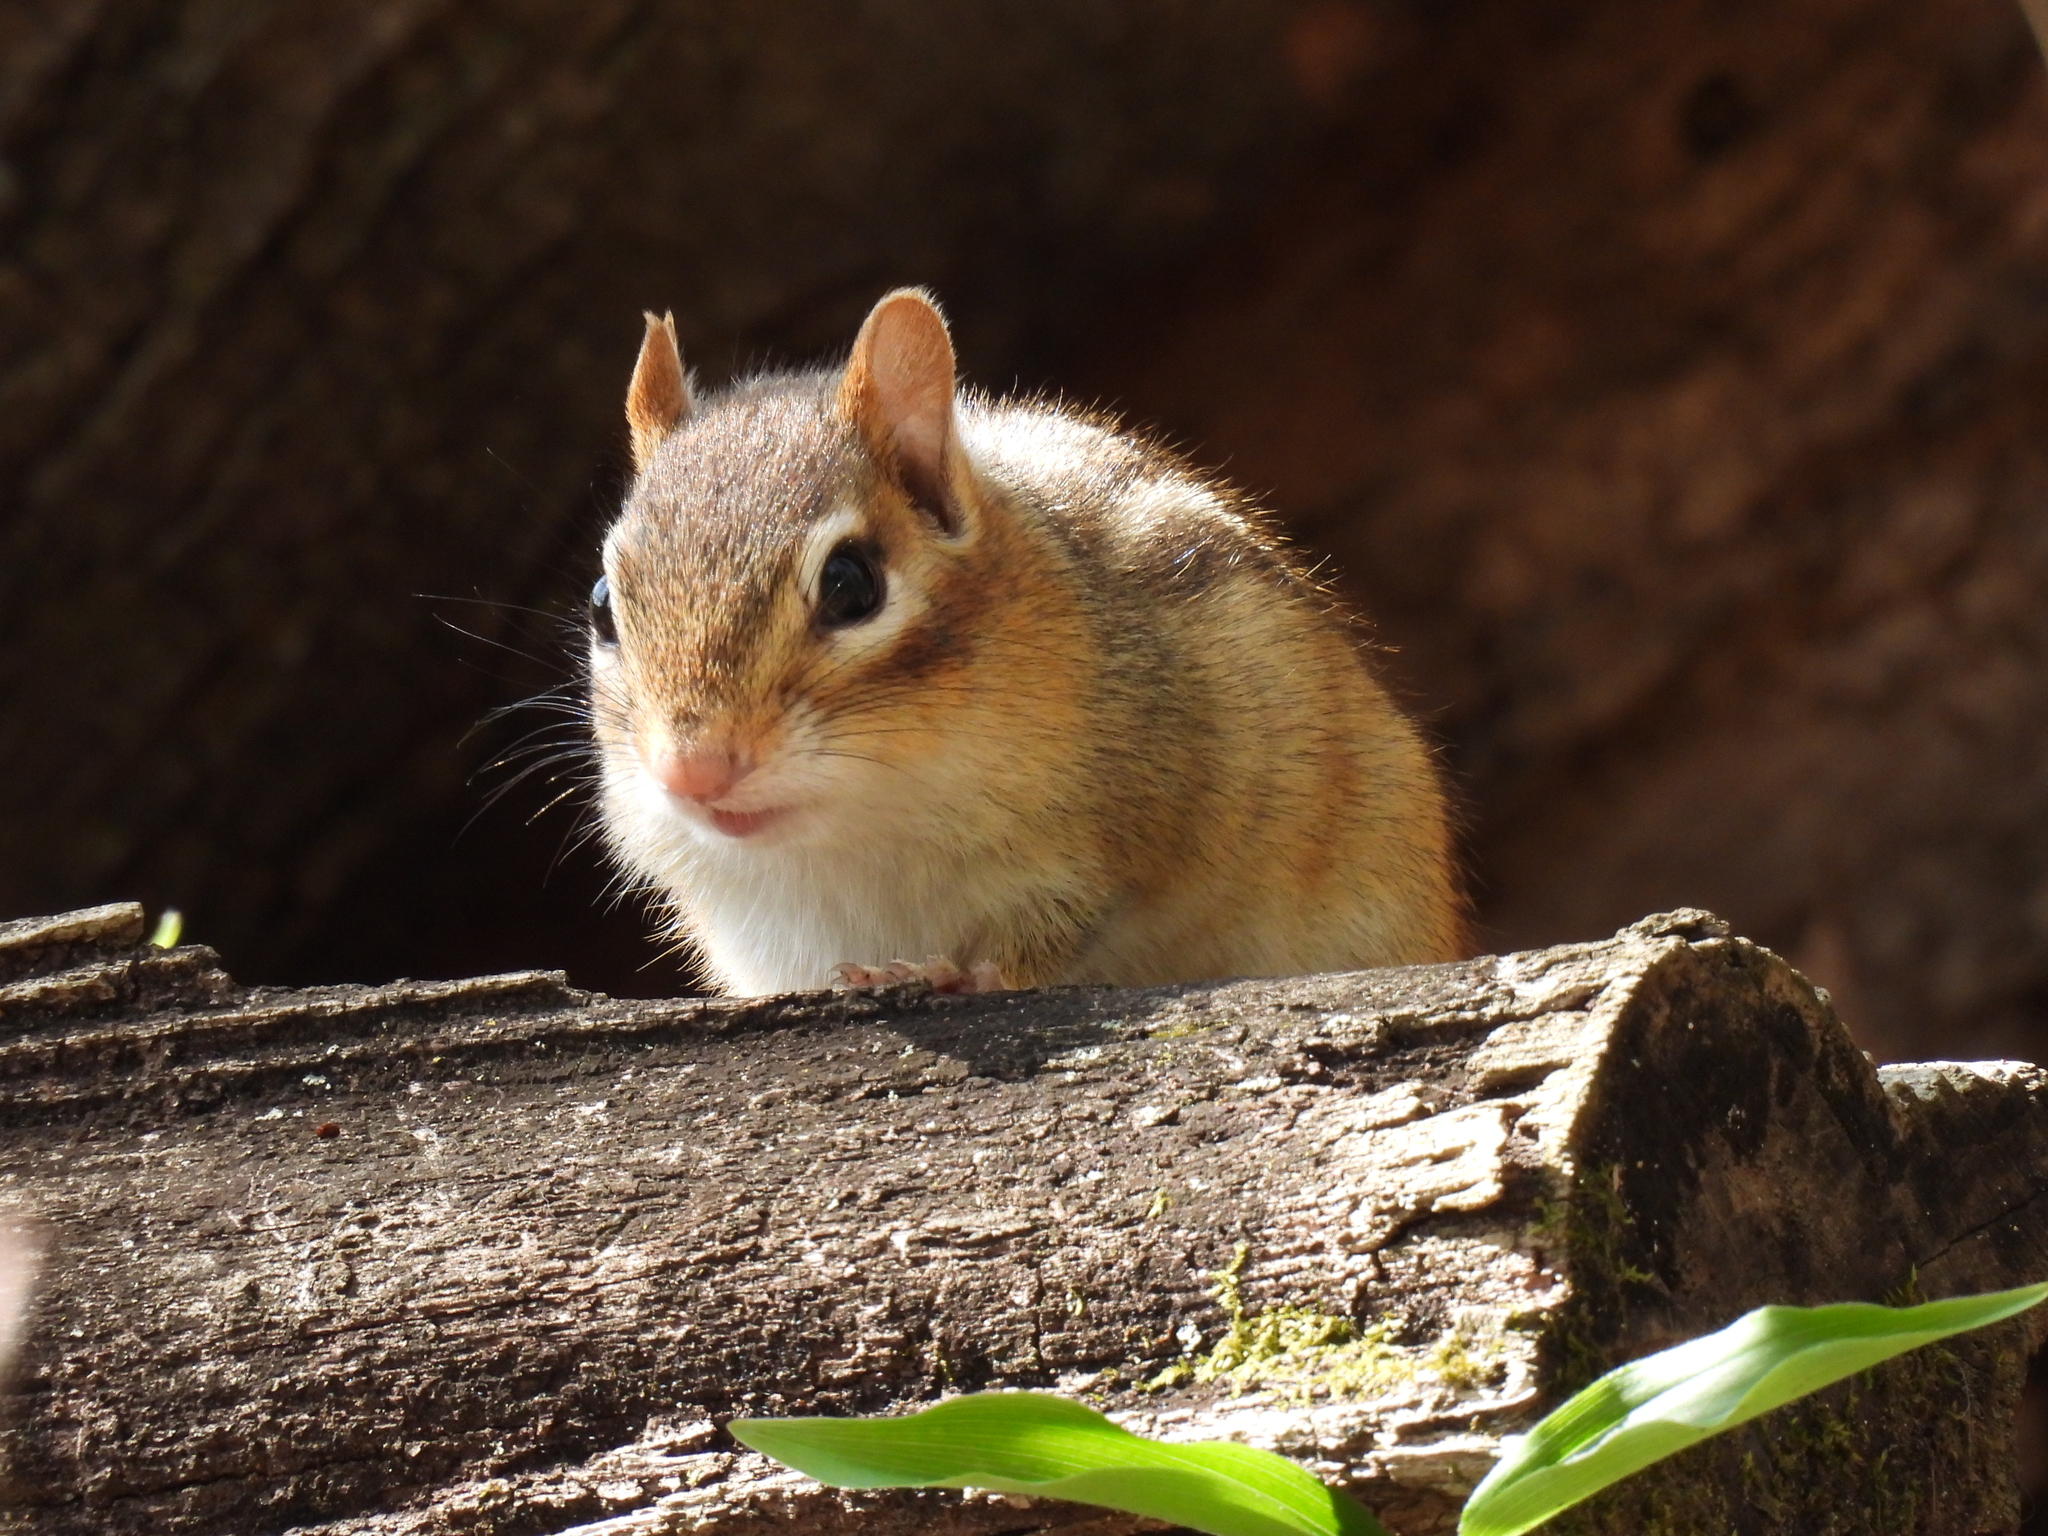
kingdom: Animalia
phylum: Chordata
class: Mammalia
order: Rodentia
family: Sciuridae
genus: Tamias
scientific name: Tamias striatus
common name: Eastern chipmunk
